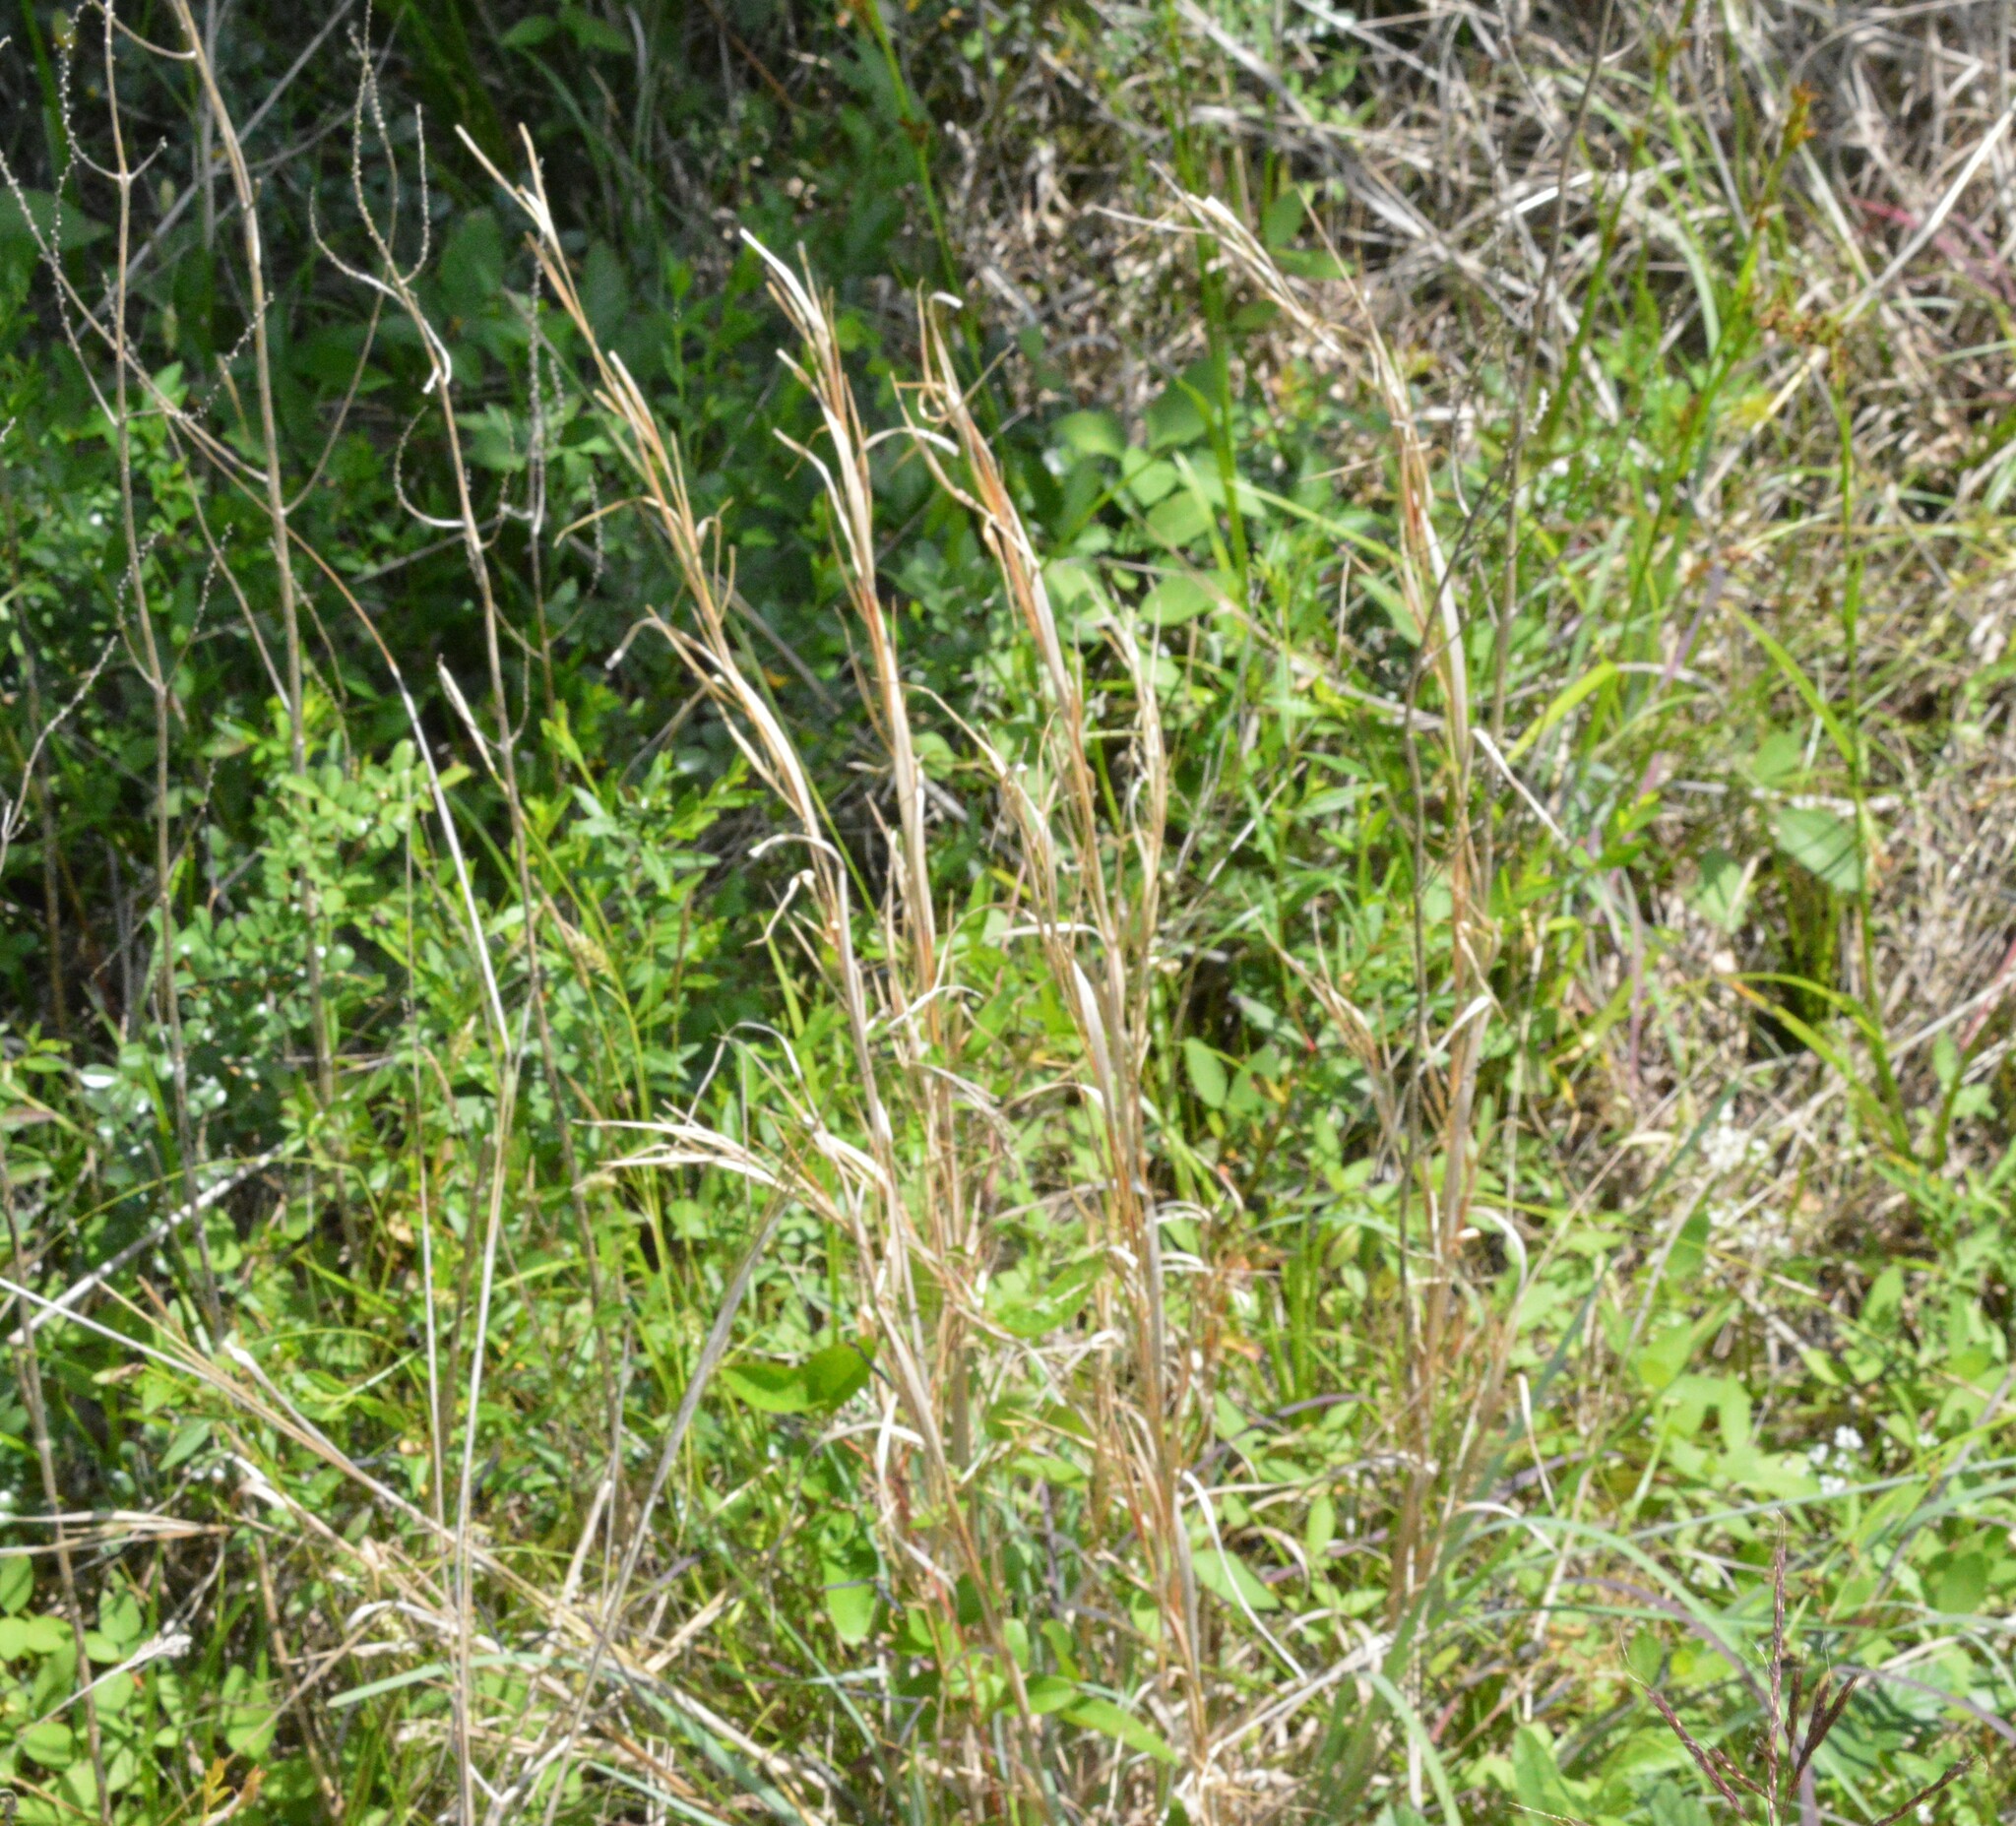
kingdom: Plantae
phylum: Tracheophyta
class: Liliopsida
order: Poales
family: Poaceae
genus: Andropogon
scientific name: Andropogon virginicus
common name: Broomsedge bluestem
